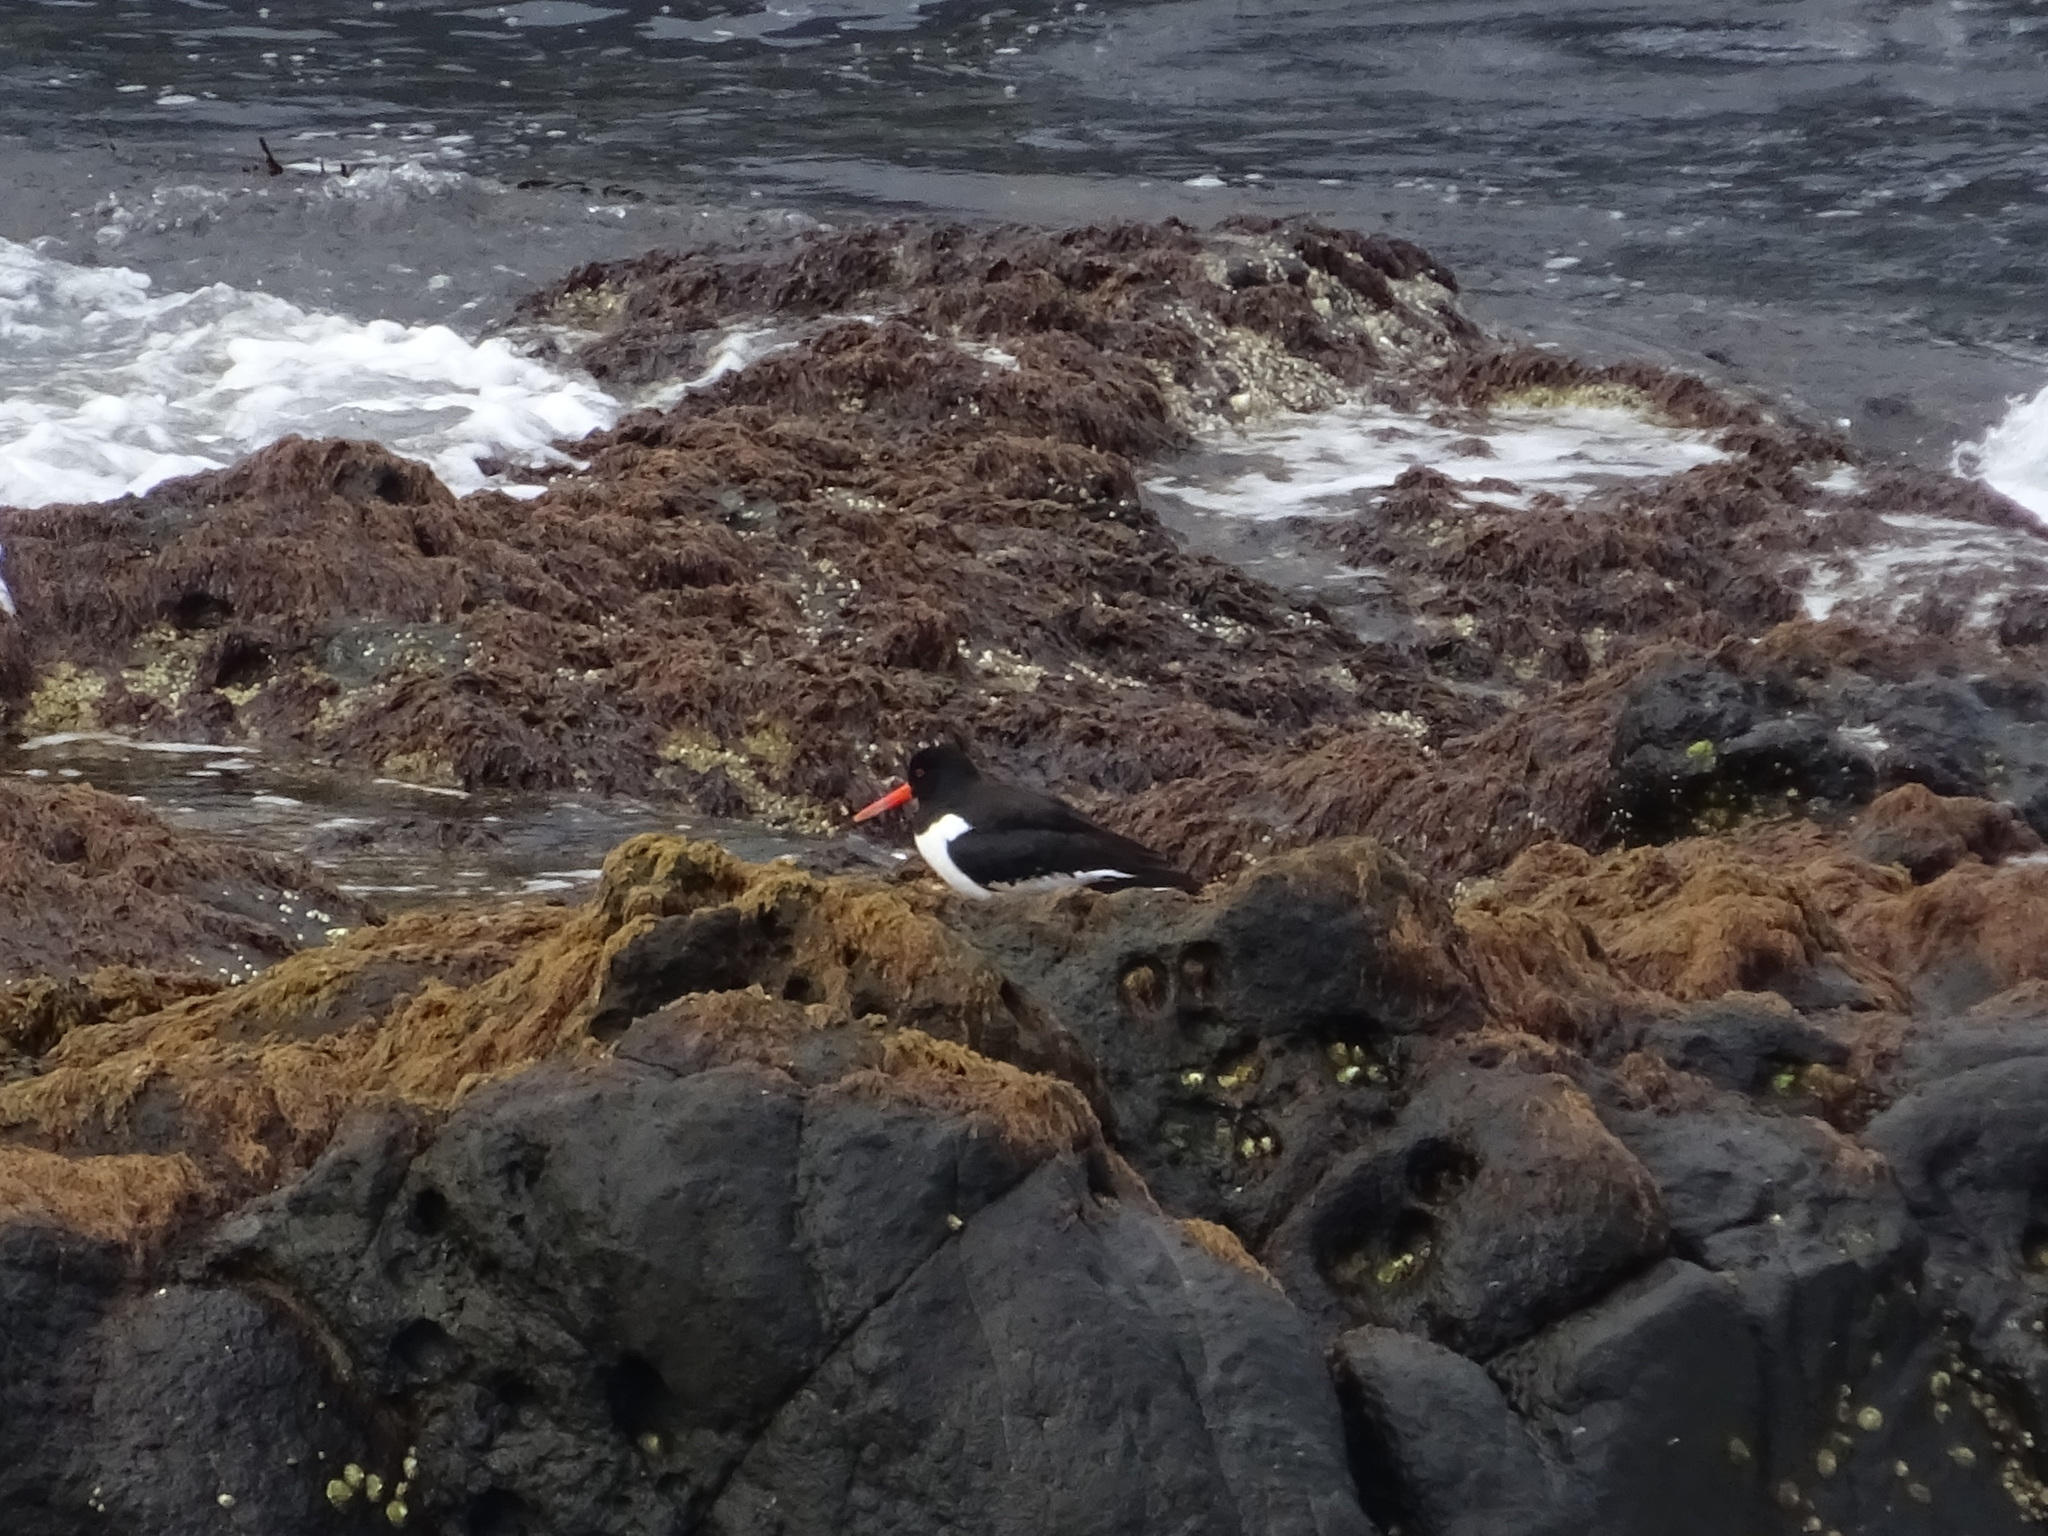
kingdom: Animalia
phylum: Chordata
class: Aves
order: Charadriiformes
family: Haematopodidae
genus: Haematopus
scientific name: Haematopus ostralegus
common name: Eurasian oystercatcher
